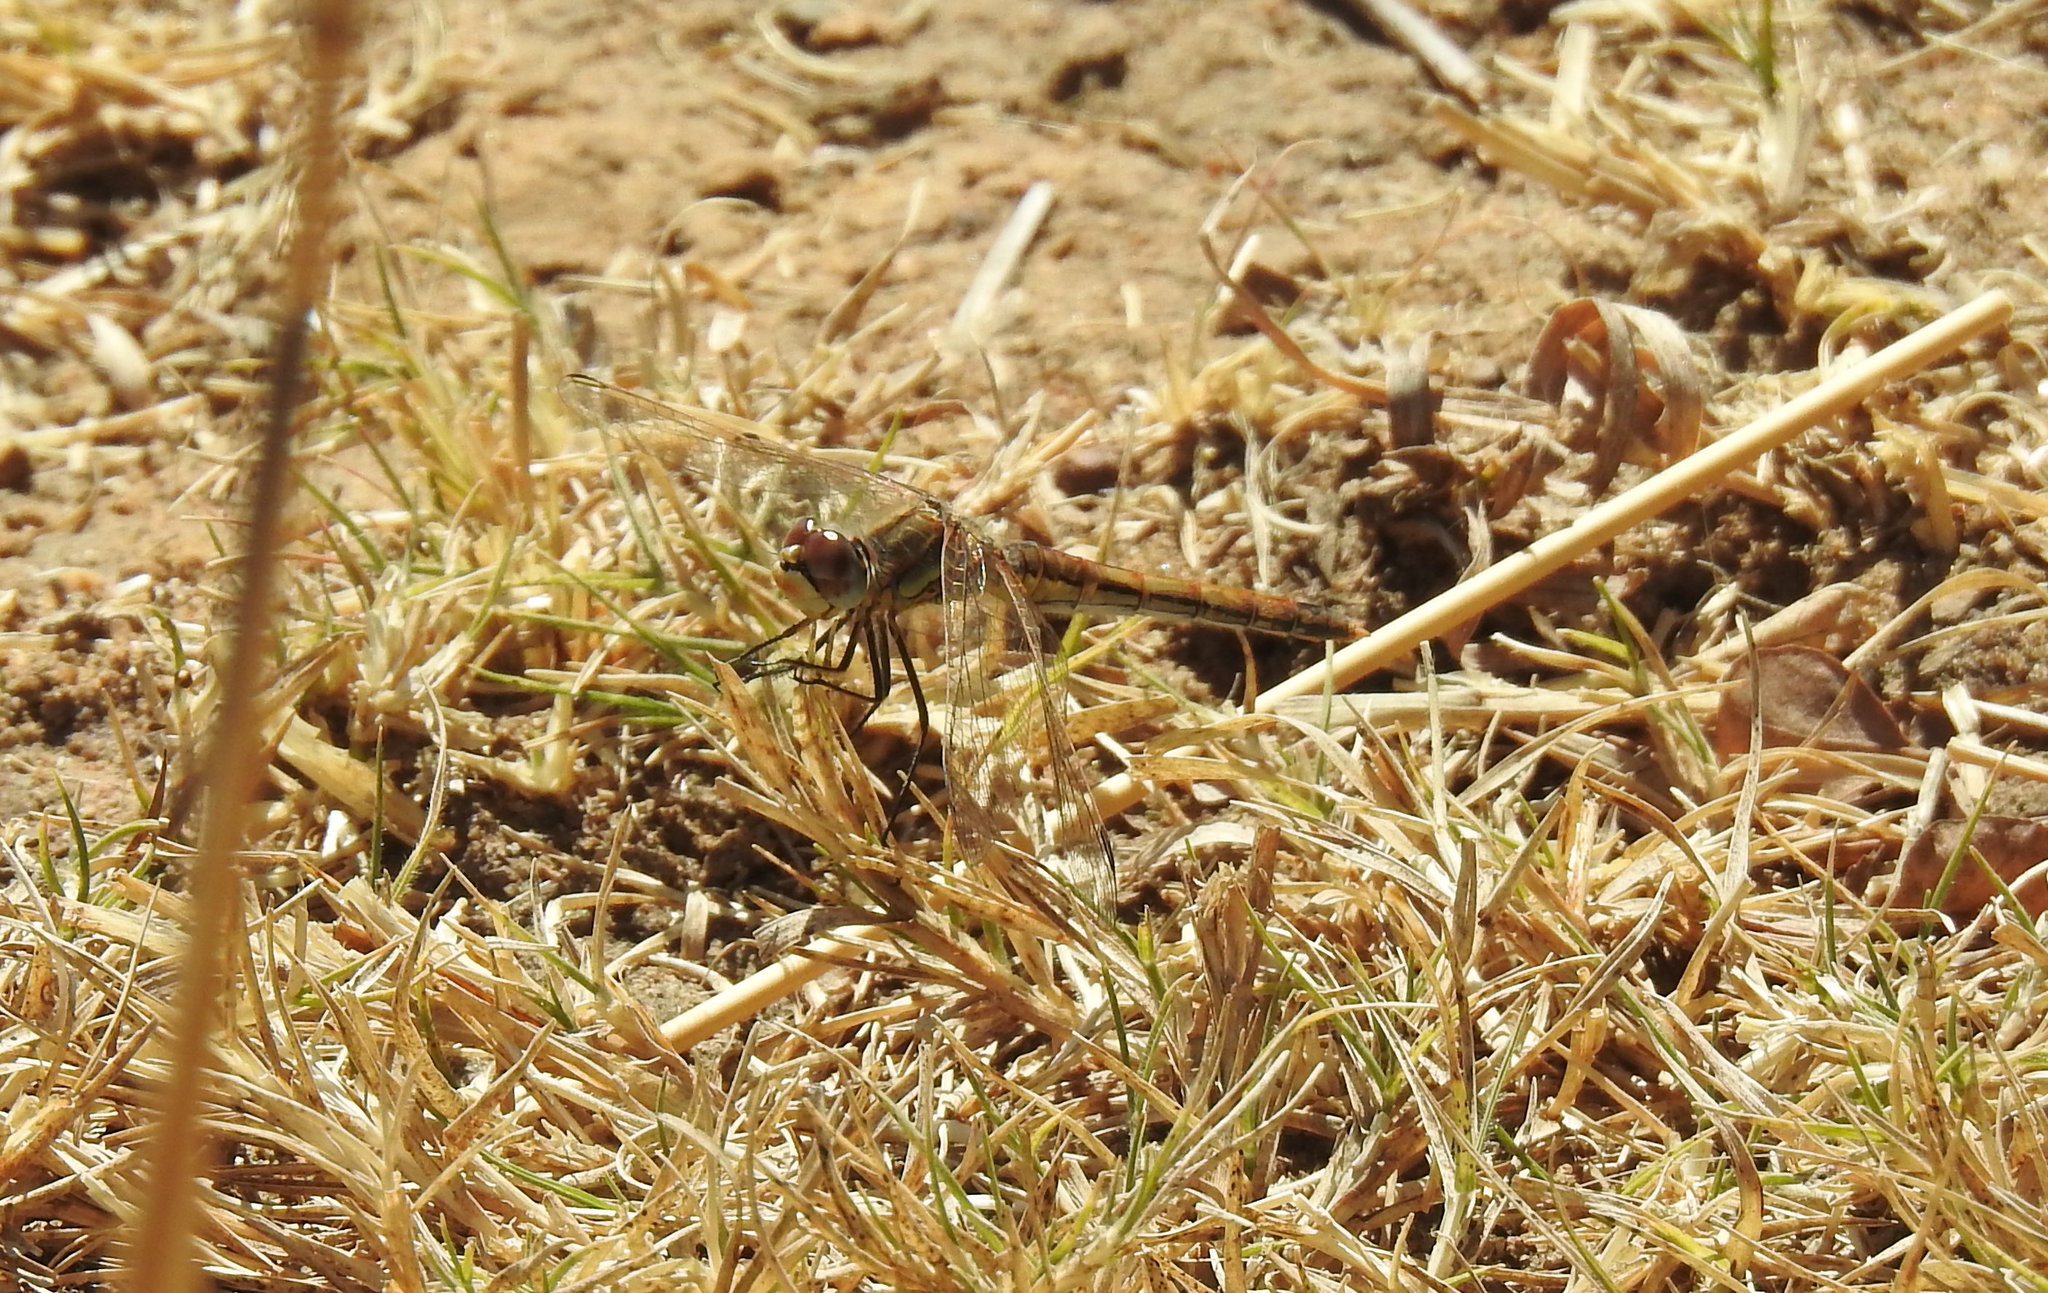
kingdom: Animalia
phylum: Arthropoda
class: Insecta
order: Odonata
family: Libellulidae
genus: Sympetrum
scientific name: Sympetrum fonscolombii
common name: Red-veined darter
